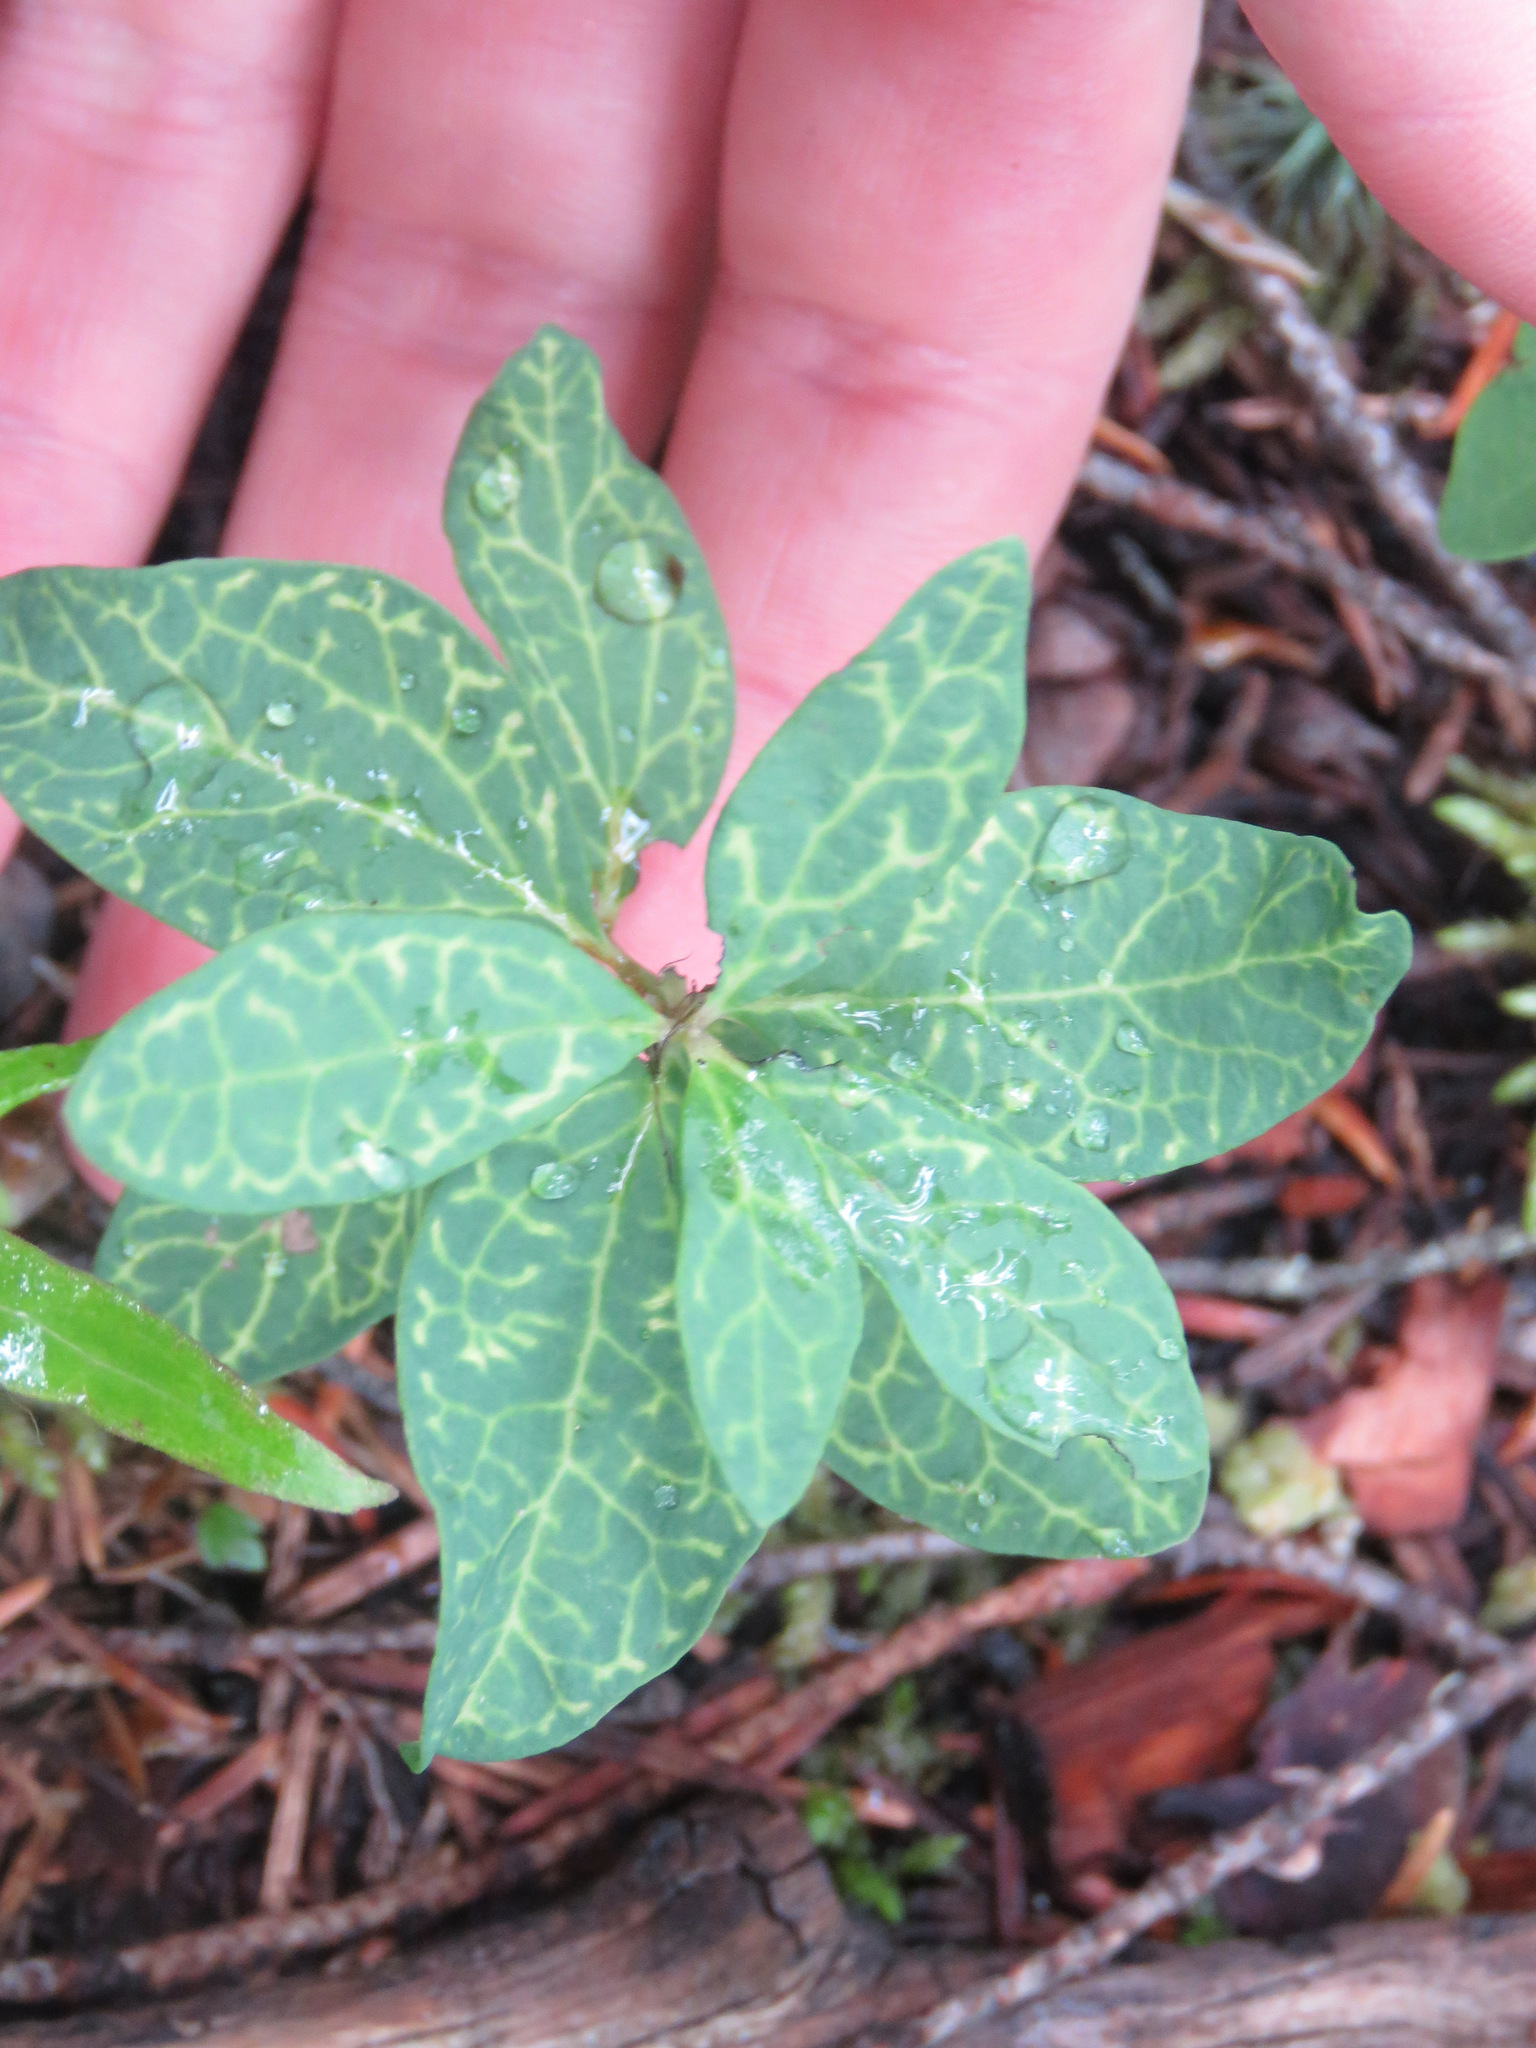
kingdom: Plantae
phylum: Tracheophyta
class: Magnoliopsida
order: Santalales
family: Comandraceae
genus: Geocaulon
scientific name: Geocaulon lividum
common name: Earthberry
